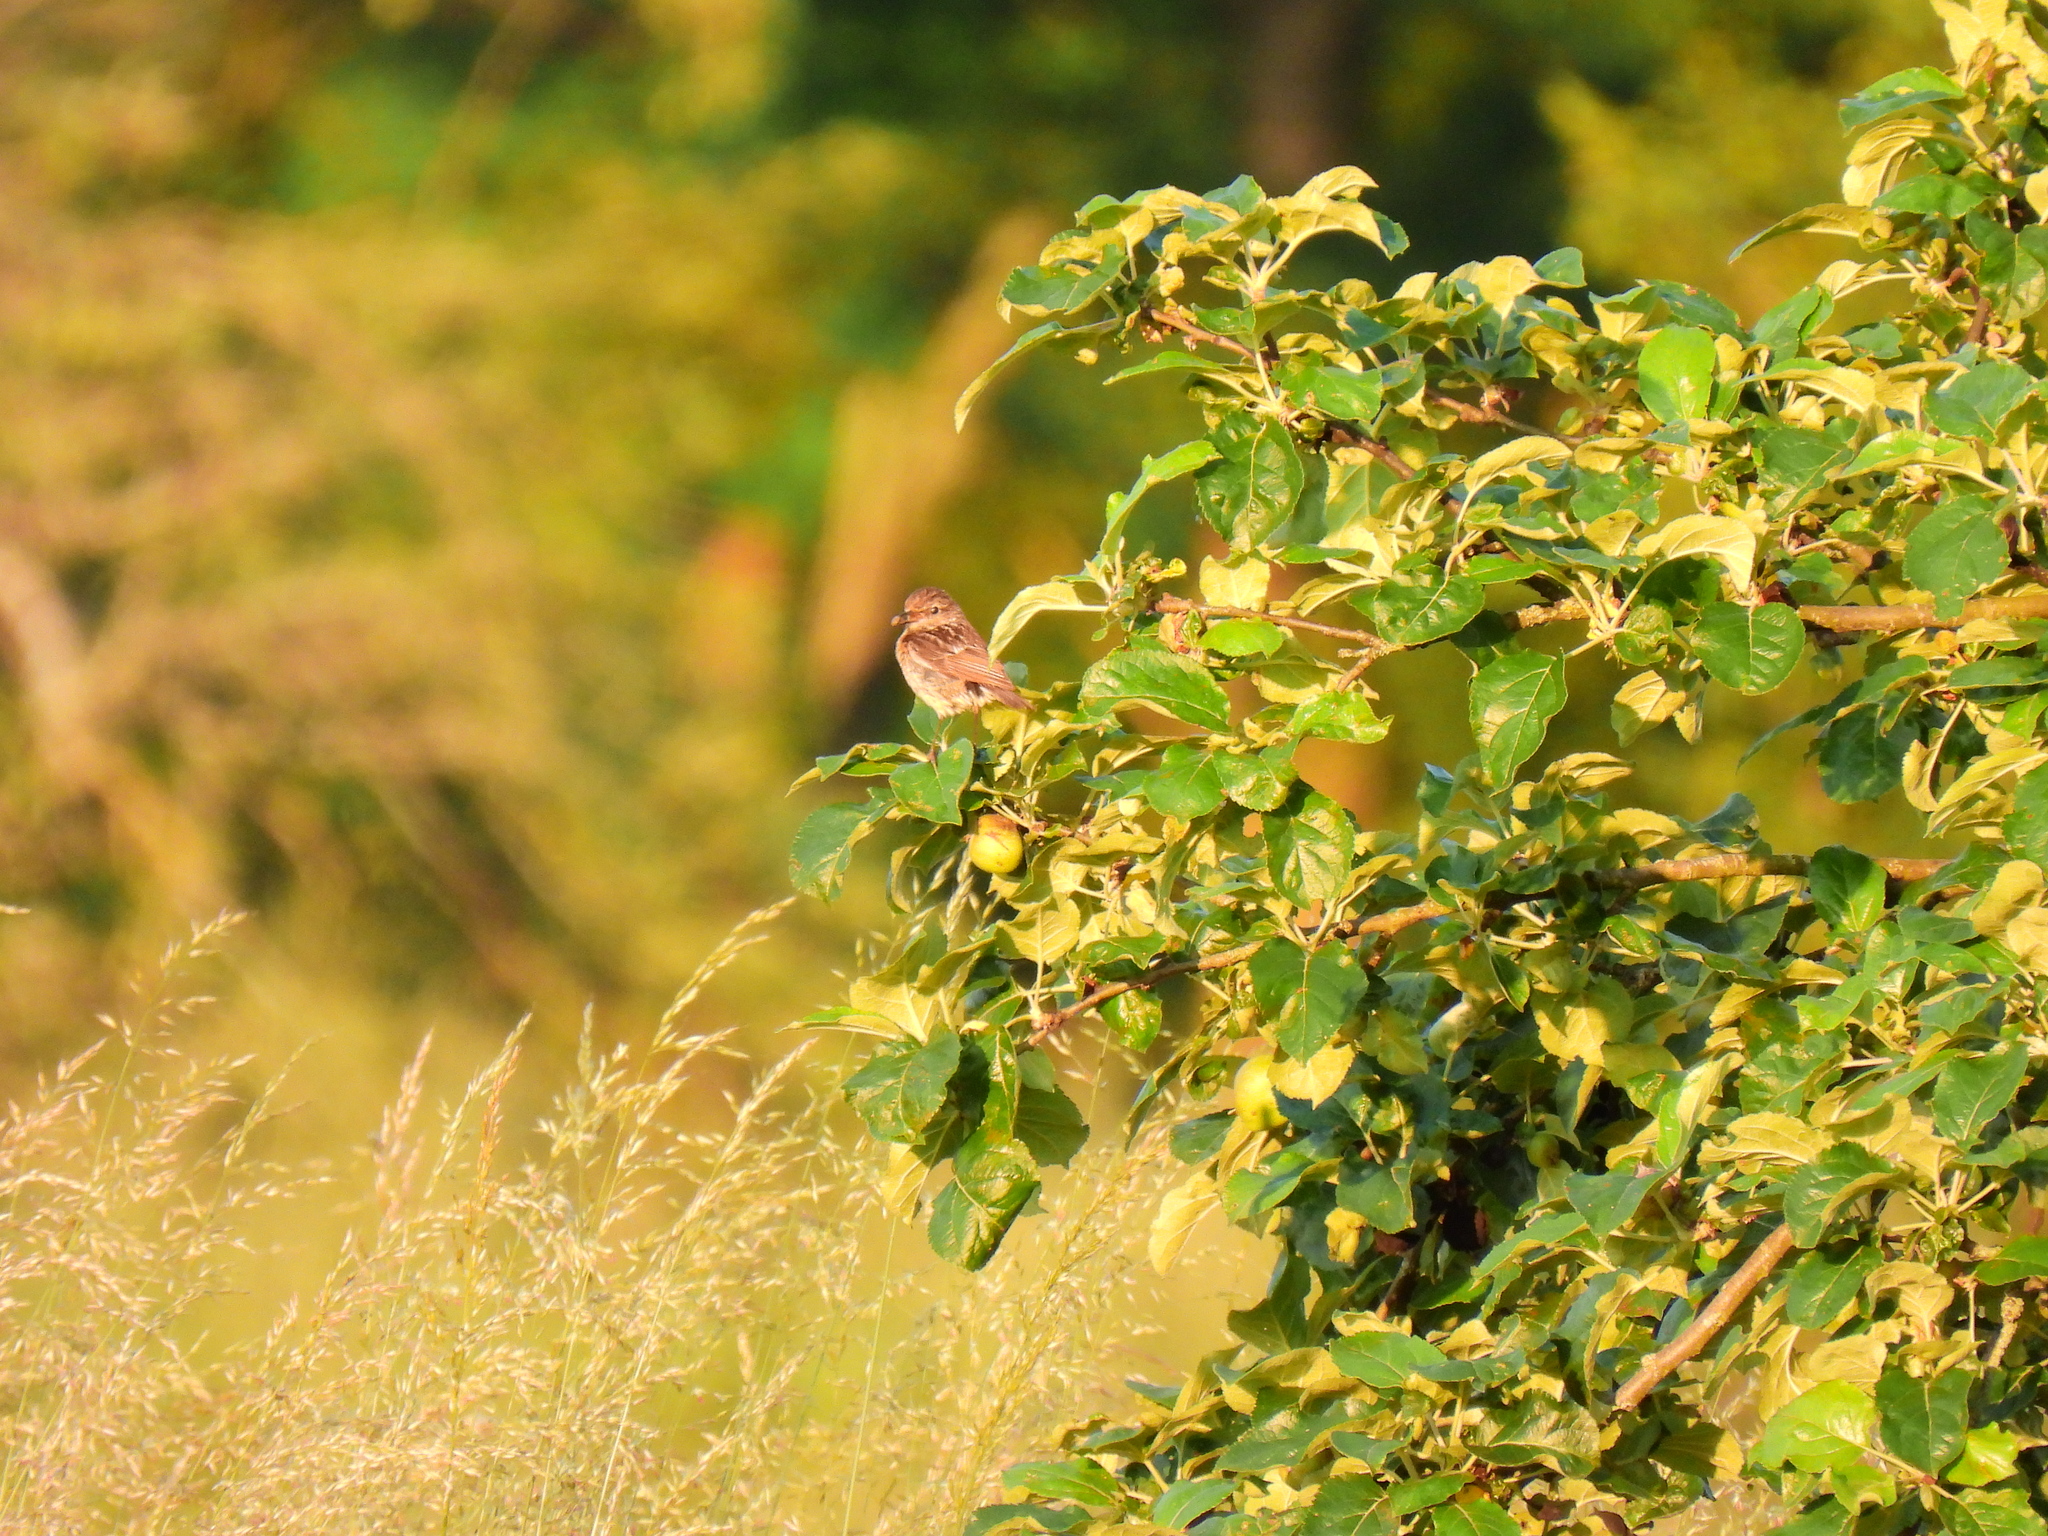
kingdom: Animalia
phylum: Chordata
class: Aves
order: Passeriformes
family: Muscicapidae
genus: Saxicola
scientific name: Saxicola rubicola
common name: European stonechat
